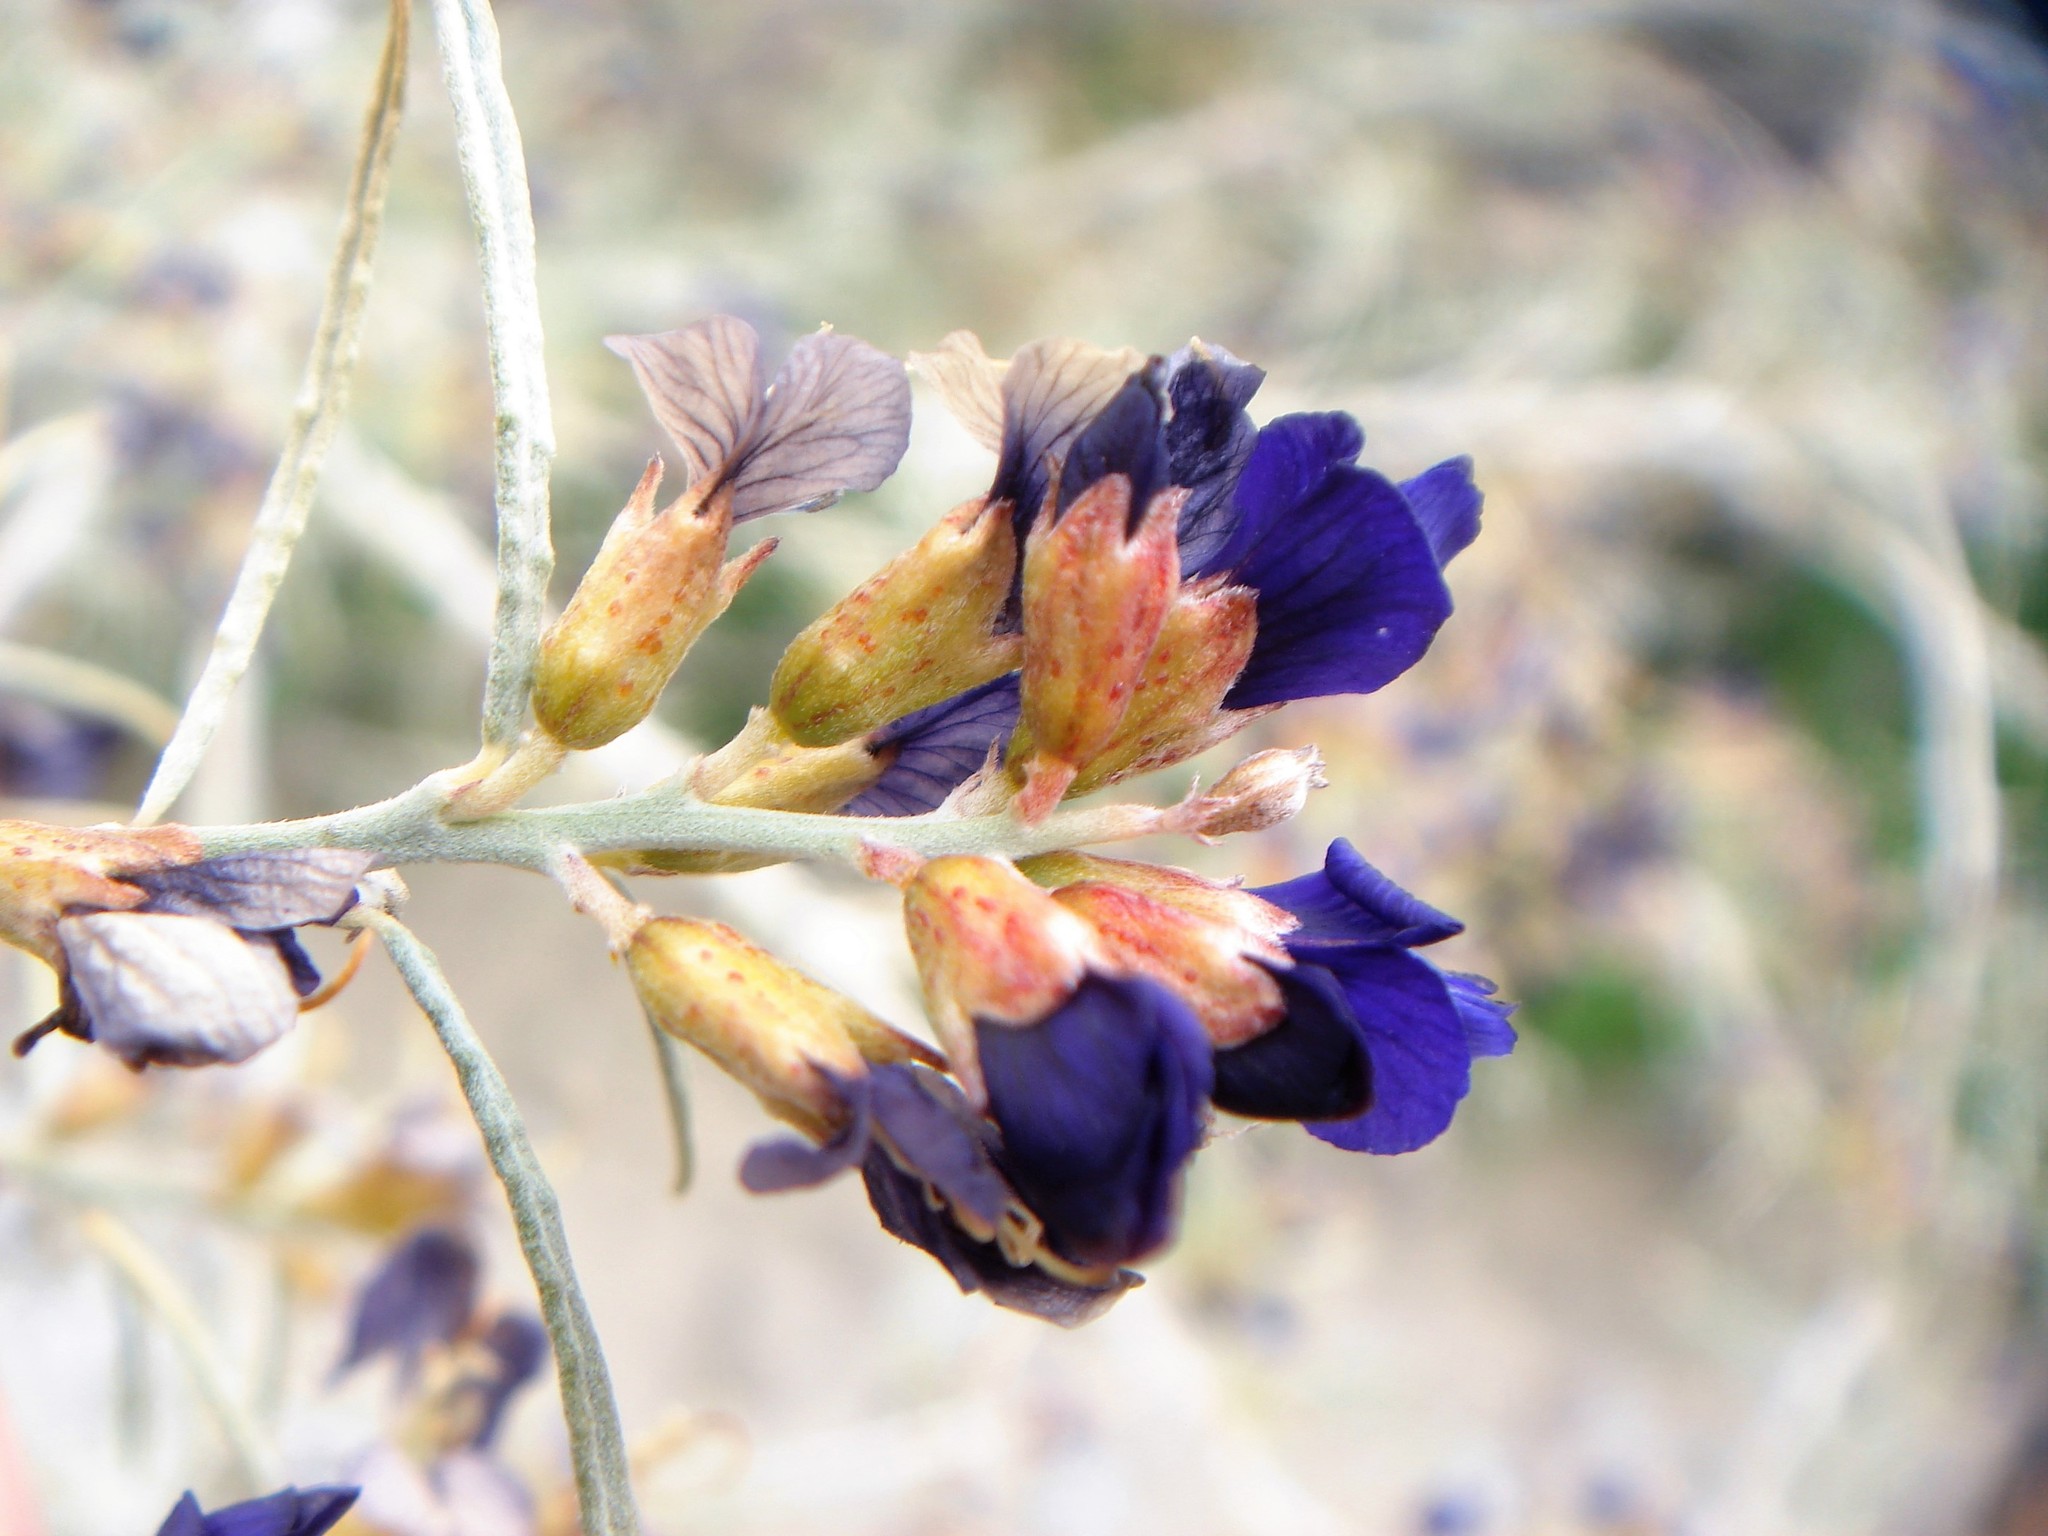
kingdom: Plantae
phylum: Tracheophyta
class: Magnoliopsida
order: Fabales
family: Fabaceae
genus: Psorothamnus
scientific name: Psorothamnus schottii
